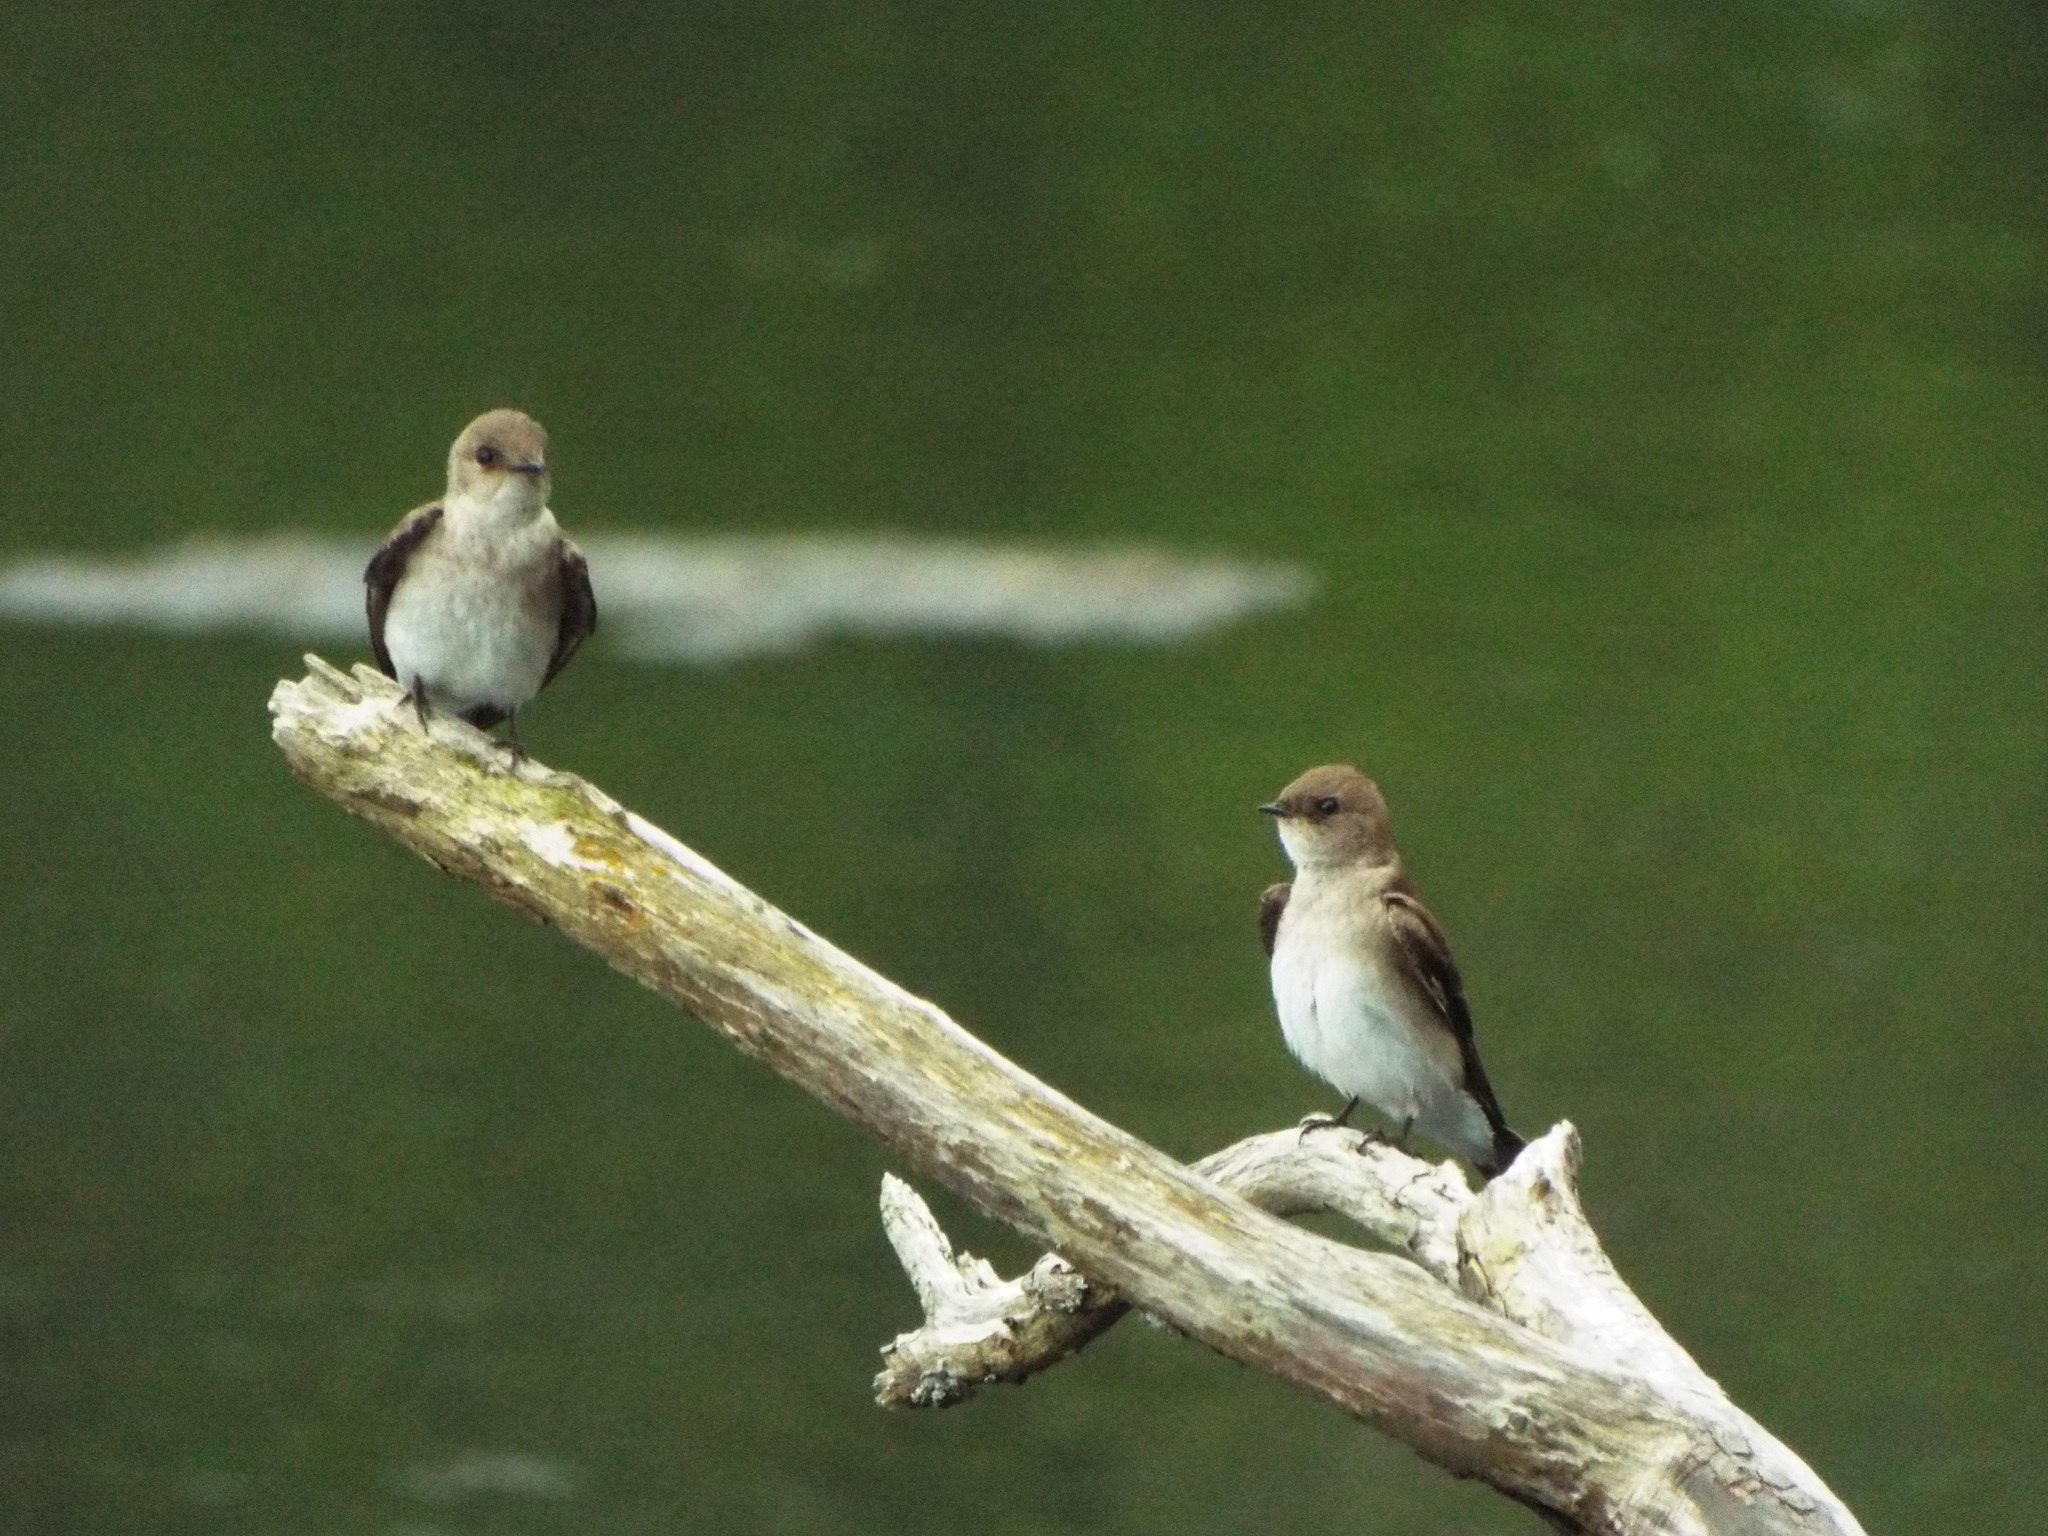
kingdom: Animalia
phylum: Chordata
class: Aves
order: Passeriformes
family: Hirundinidae
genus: Stelgidopteryx
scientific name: Stelgidopteryx serripennis
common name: Northern rough-winged swallow
